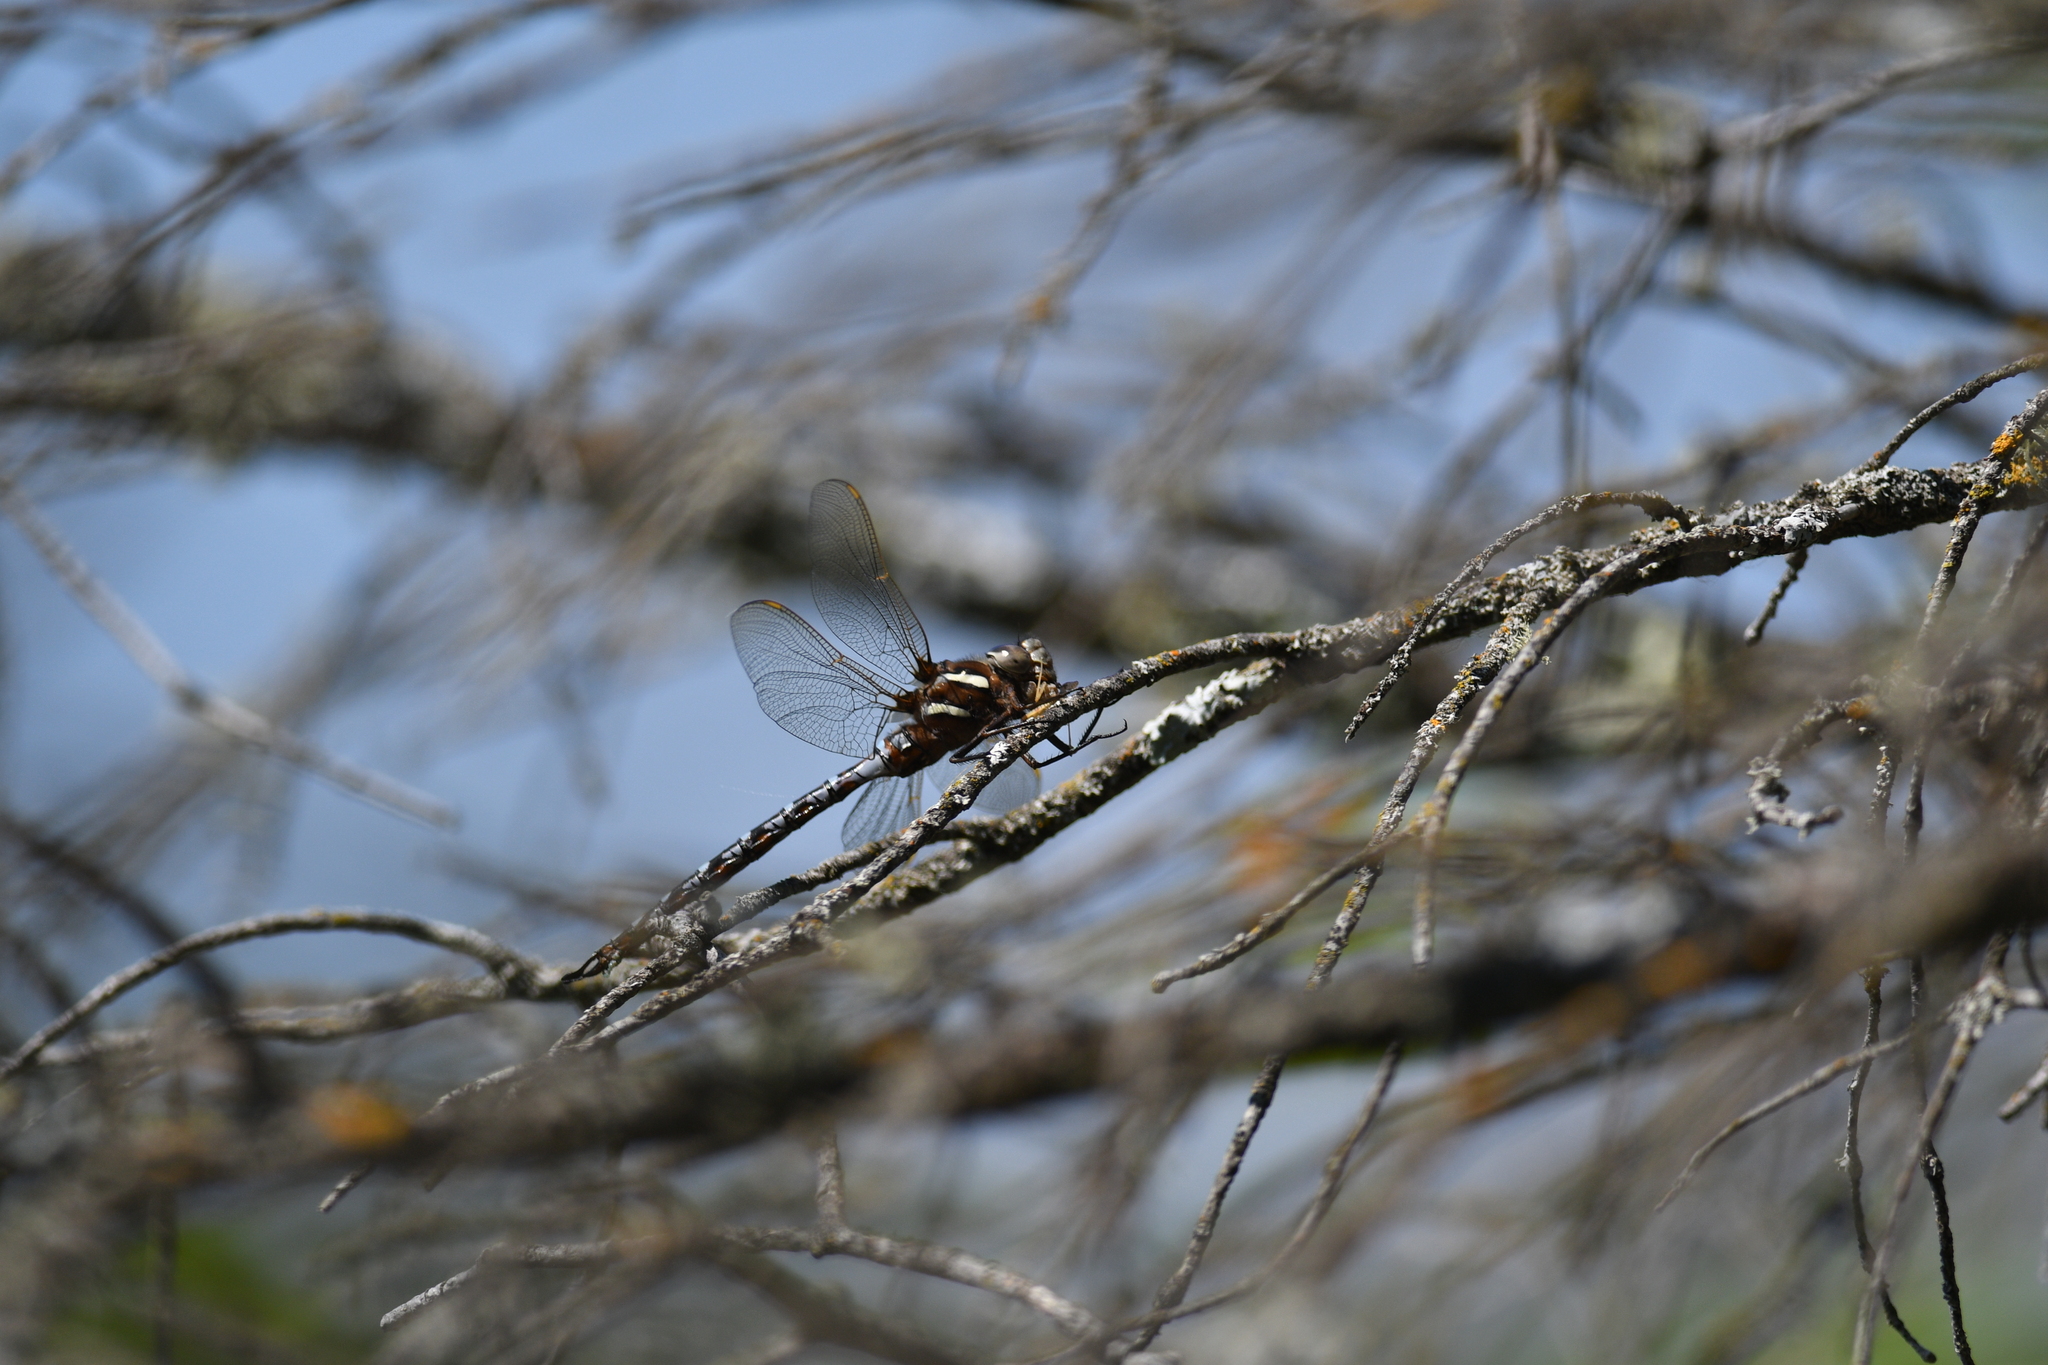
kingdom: Animalia
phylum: Arthropoda
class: Insecta
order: Odonata
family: Aeshnidae
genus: Basiaeschna
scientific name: Basiaeschna janata
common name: Springtime darner
